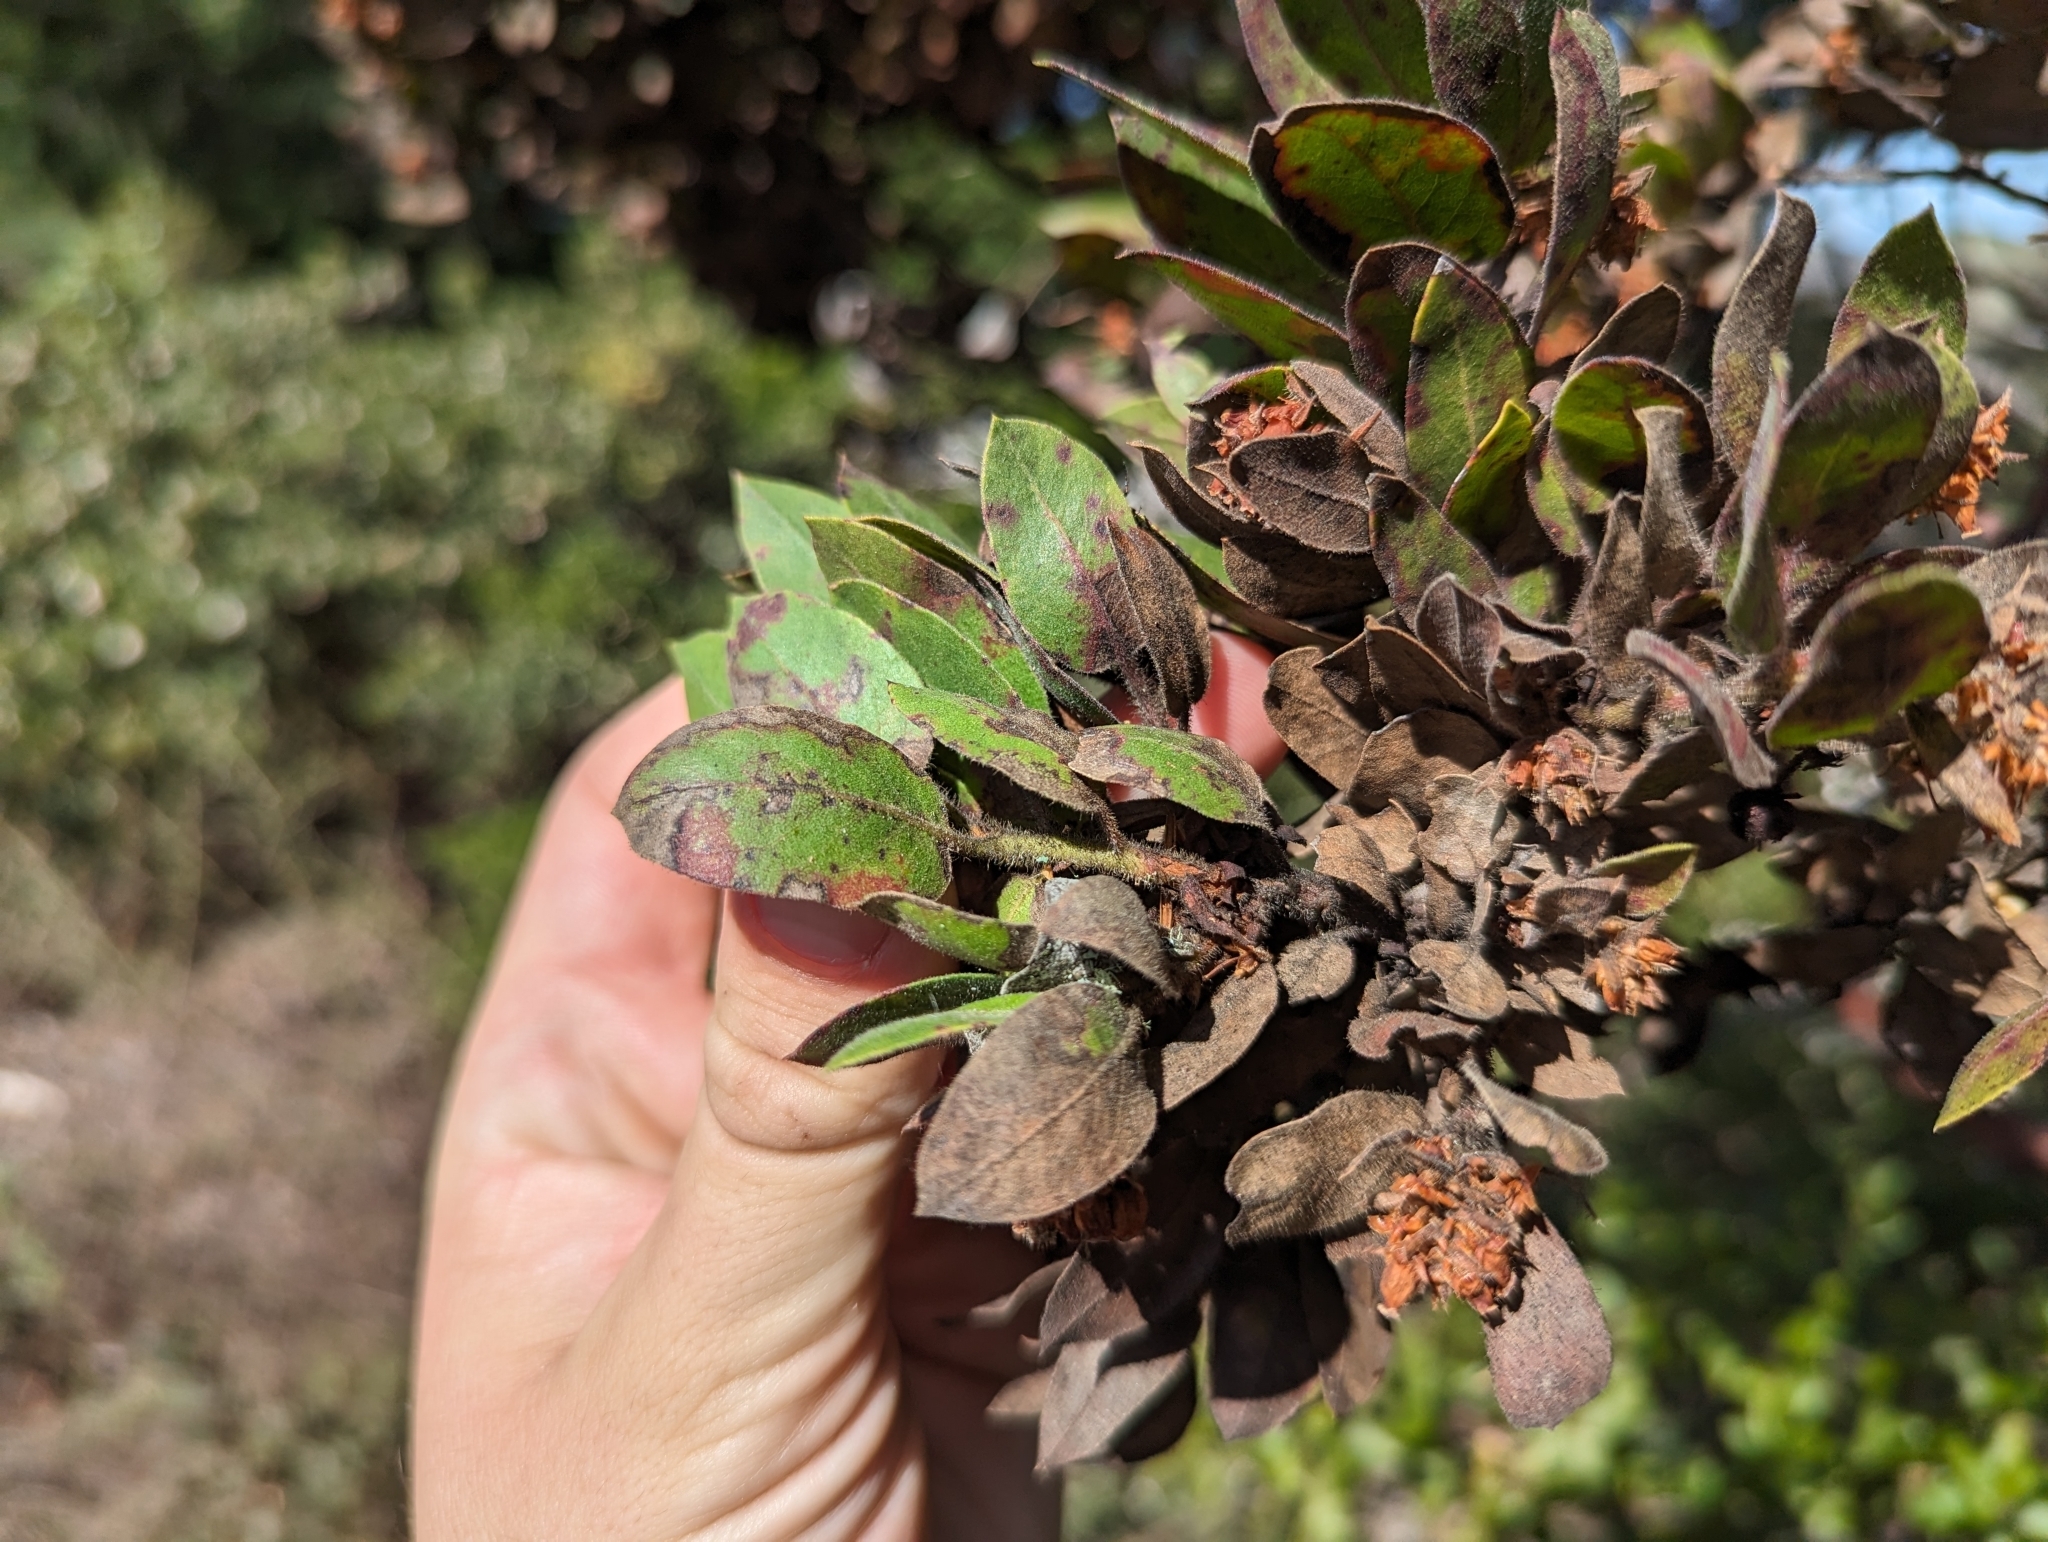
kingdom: Plantae
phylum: Tracheophyta
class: Magnoliopsida
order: Ericales
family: Ericaceae
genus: Arctostaphylos
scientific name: Arctostaphylos virgata
